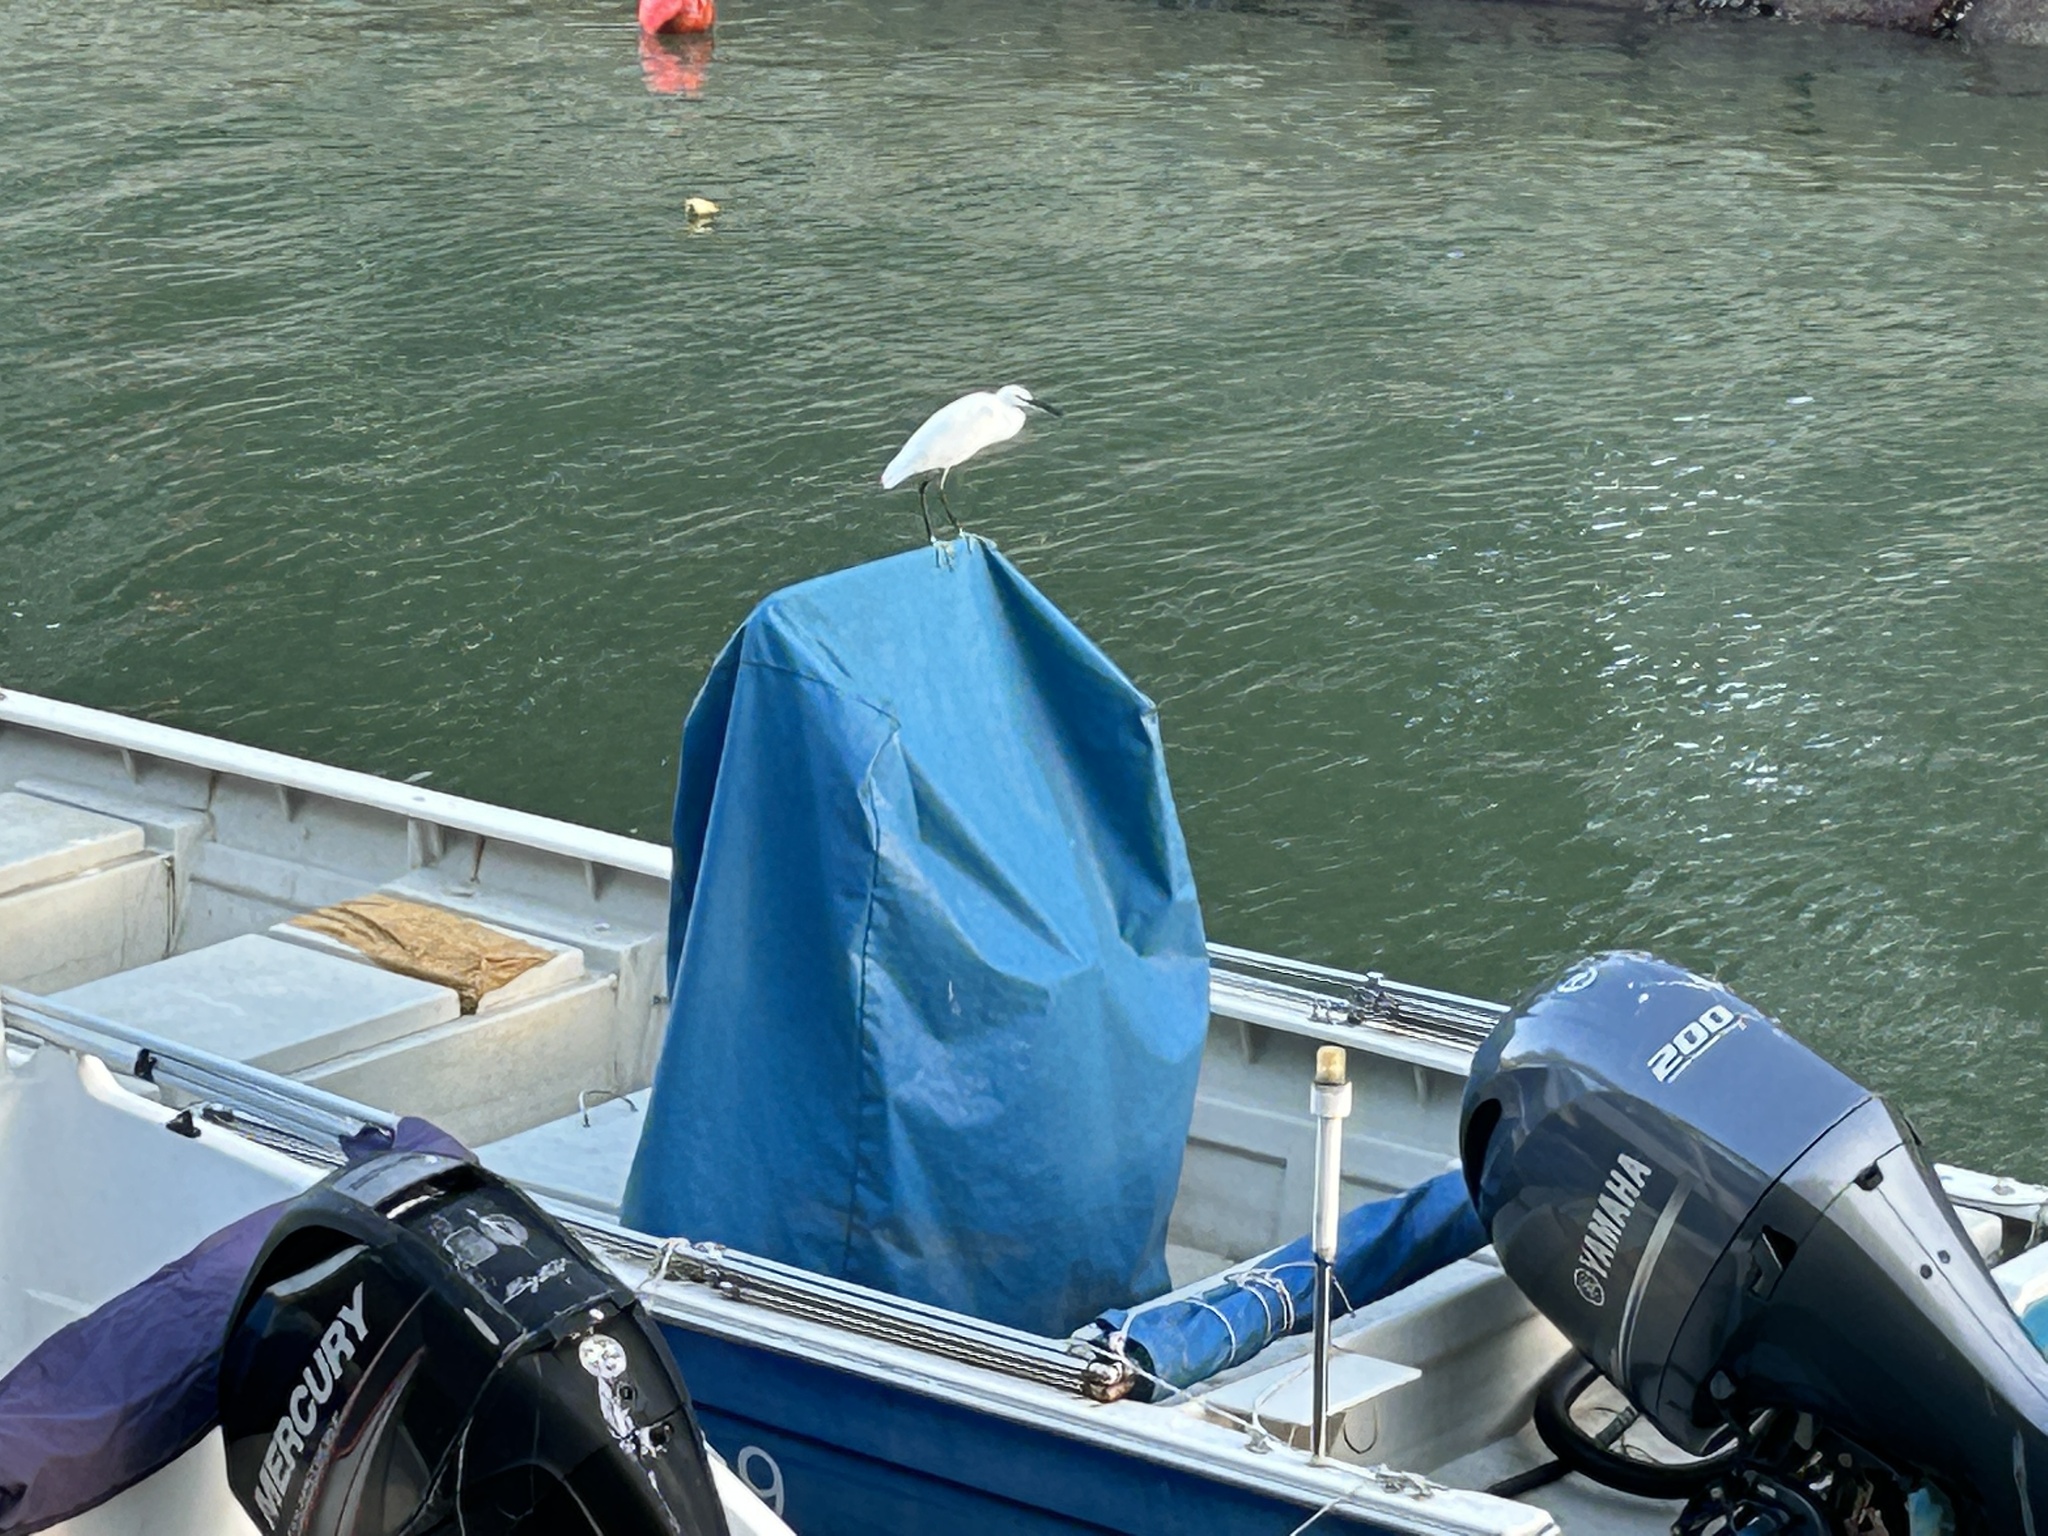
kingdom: Animalia
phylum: Chordata
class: Aves
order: Pelecaniformes
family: Ardeidae
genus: Egretta
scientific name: Egretta garzetta
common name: Little egret
